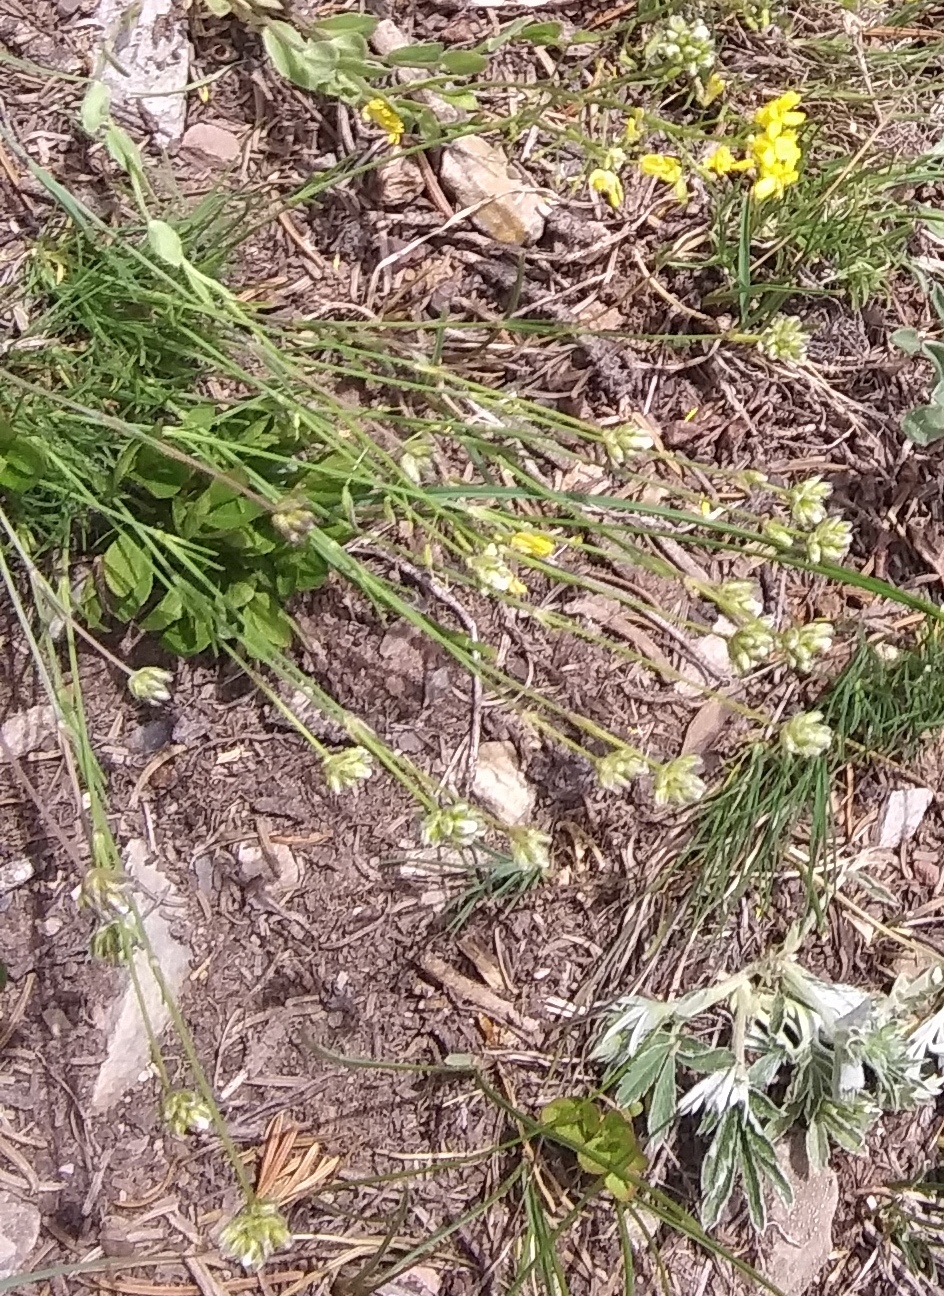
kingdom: Plantae
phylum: Tracheophyta
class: Magnoliopsida
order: Caryophyllales
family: Caryophyllaceae
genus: Eremogone
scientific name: Eremogone congesta
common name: Ballhead sandwort
